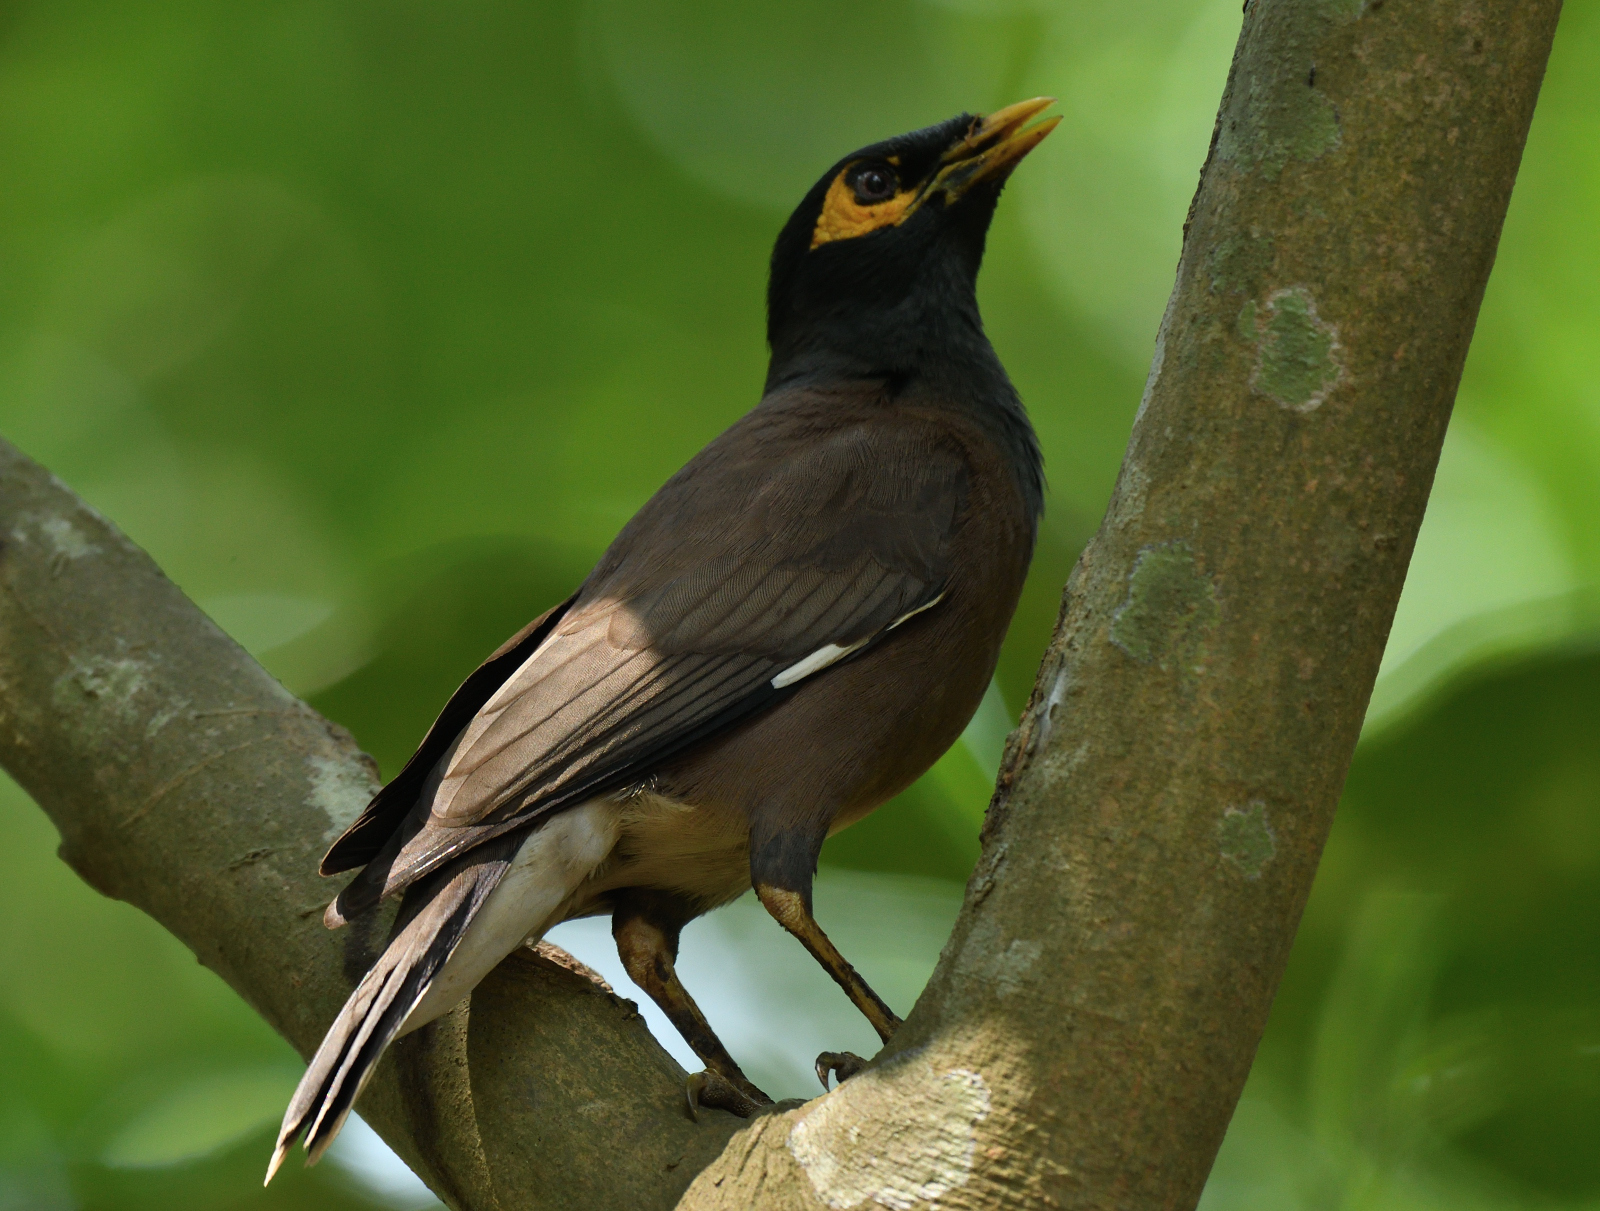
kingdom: Animalia
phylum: Chordata
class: Aves
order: Passeriformes
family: Sturnidae
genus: Acridotheres
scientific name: Acridotheres tristis
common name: Common myna
